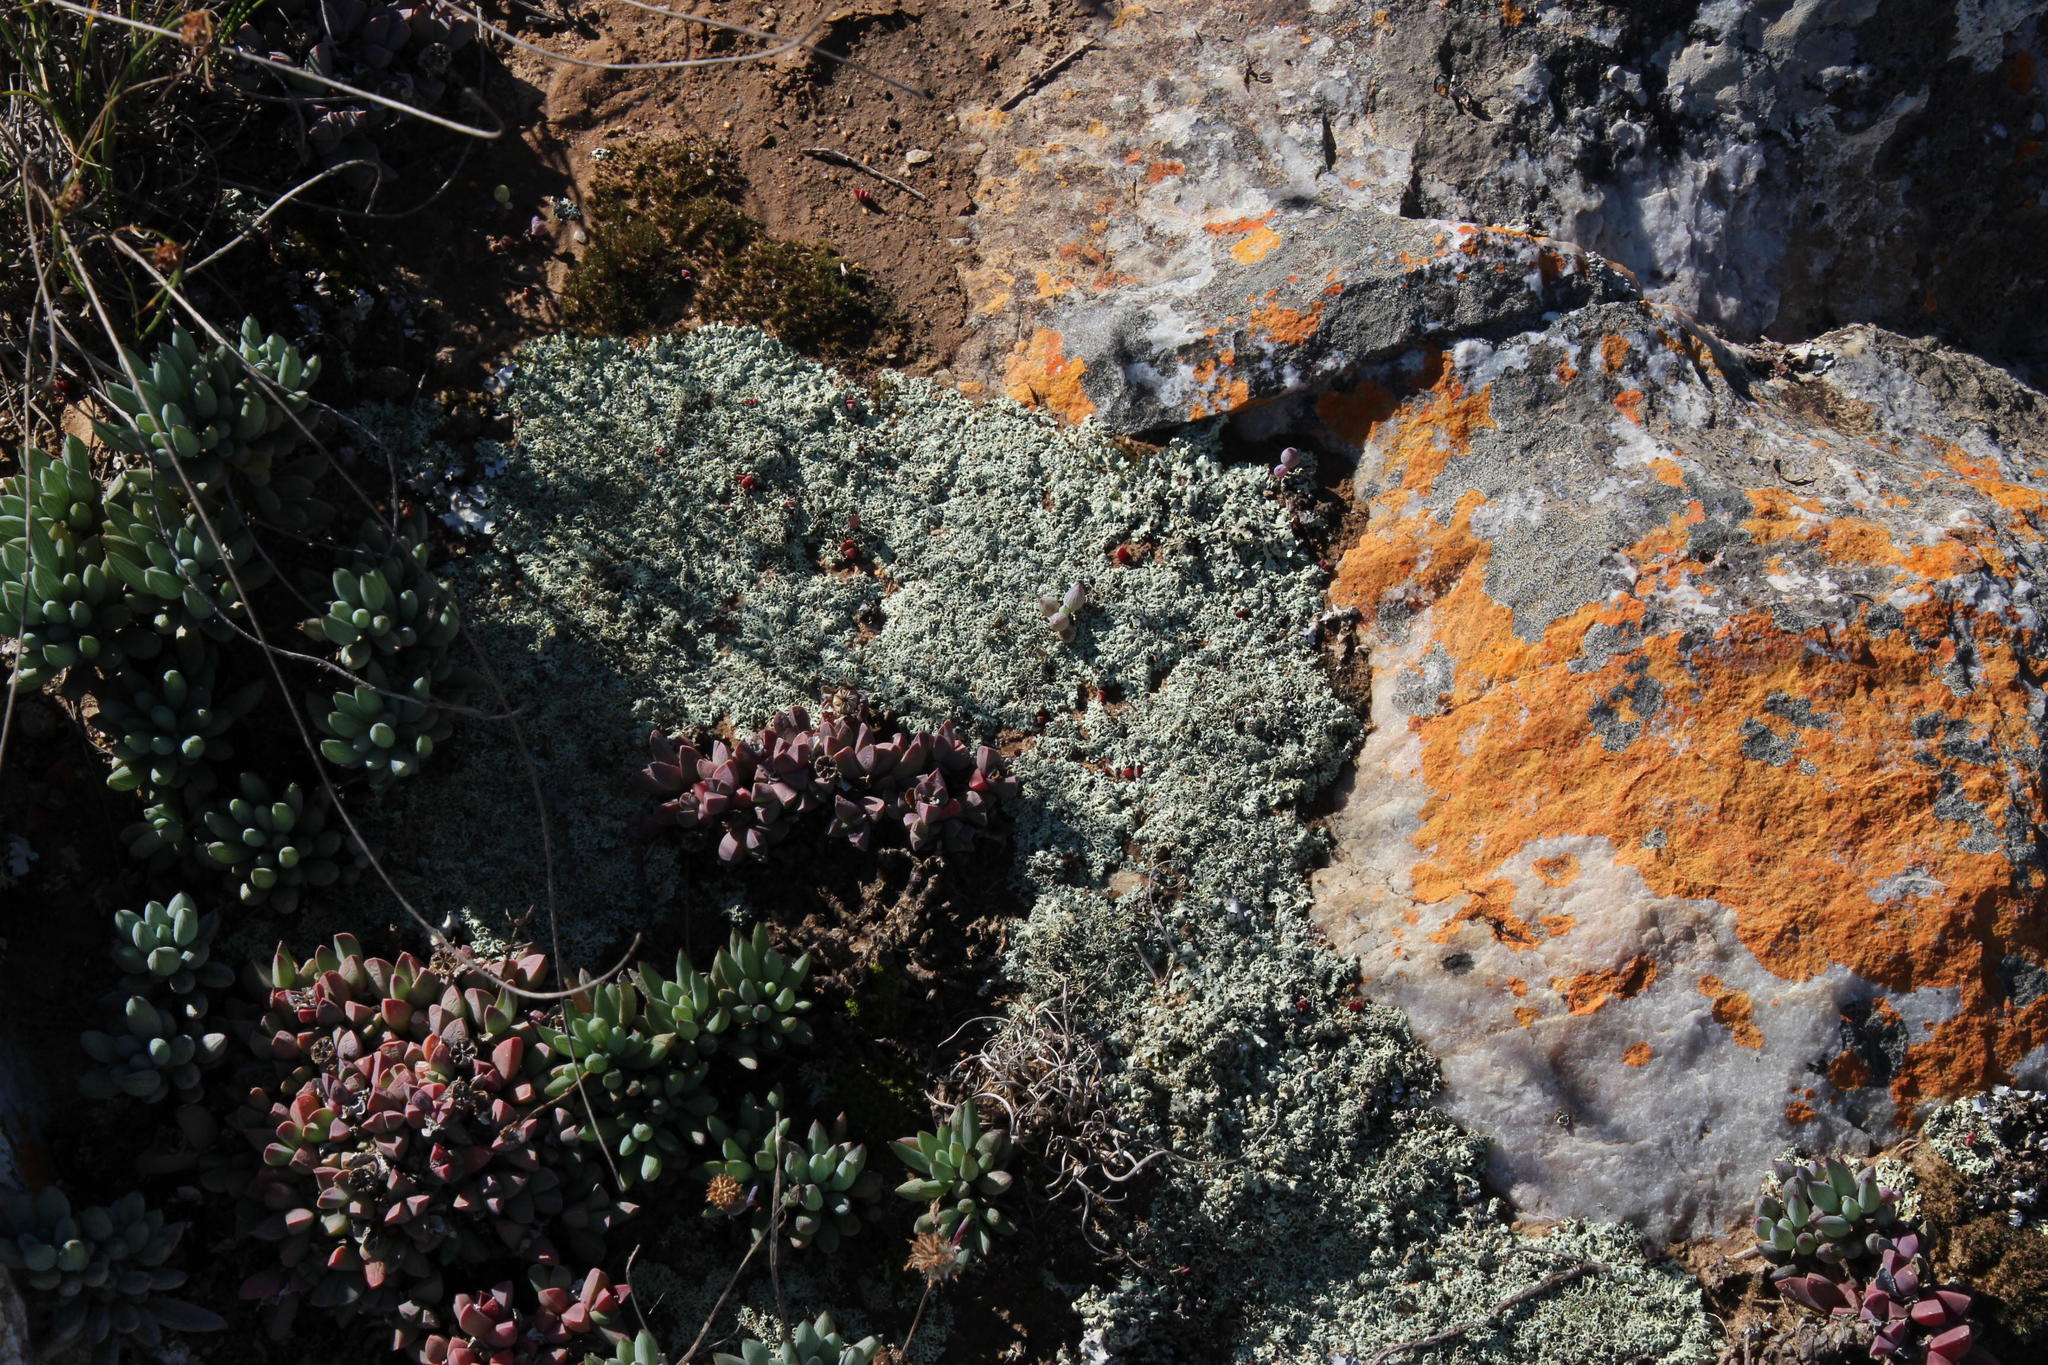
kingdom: Plantae
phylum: Tracheophyta
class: Magnoliopsida
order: Asterales
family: Asteraceae
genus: Curio
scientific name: Curio crassulifolius
